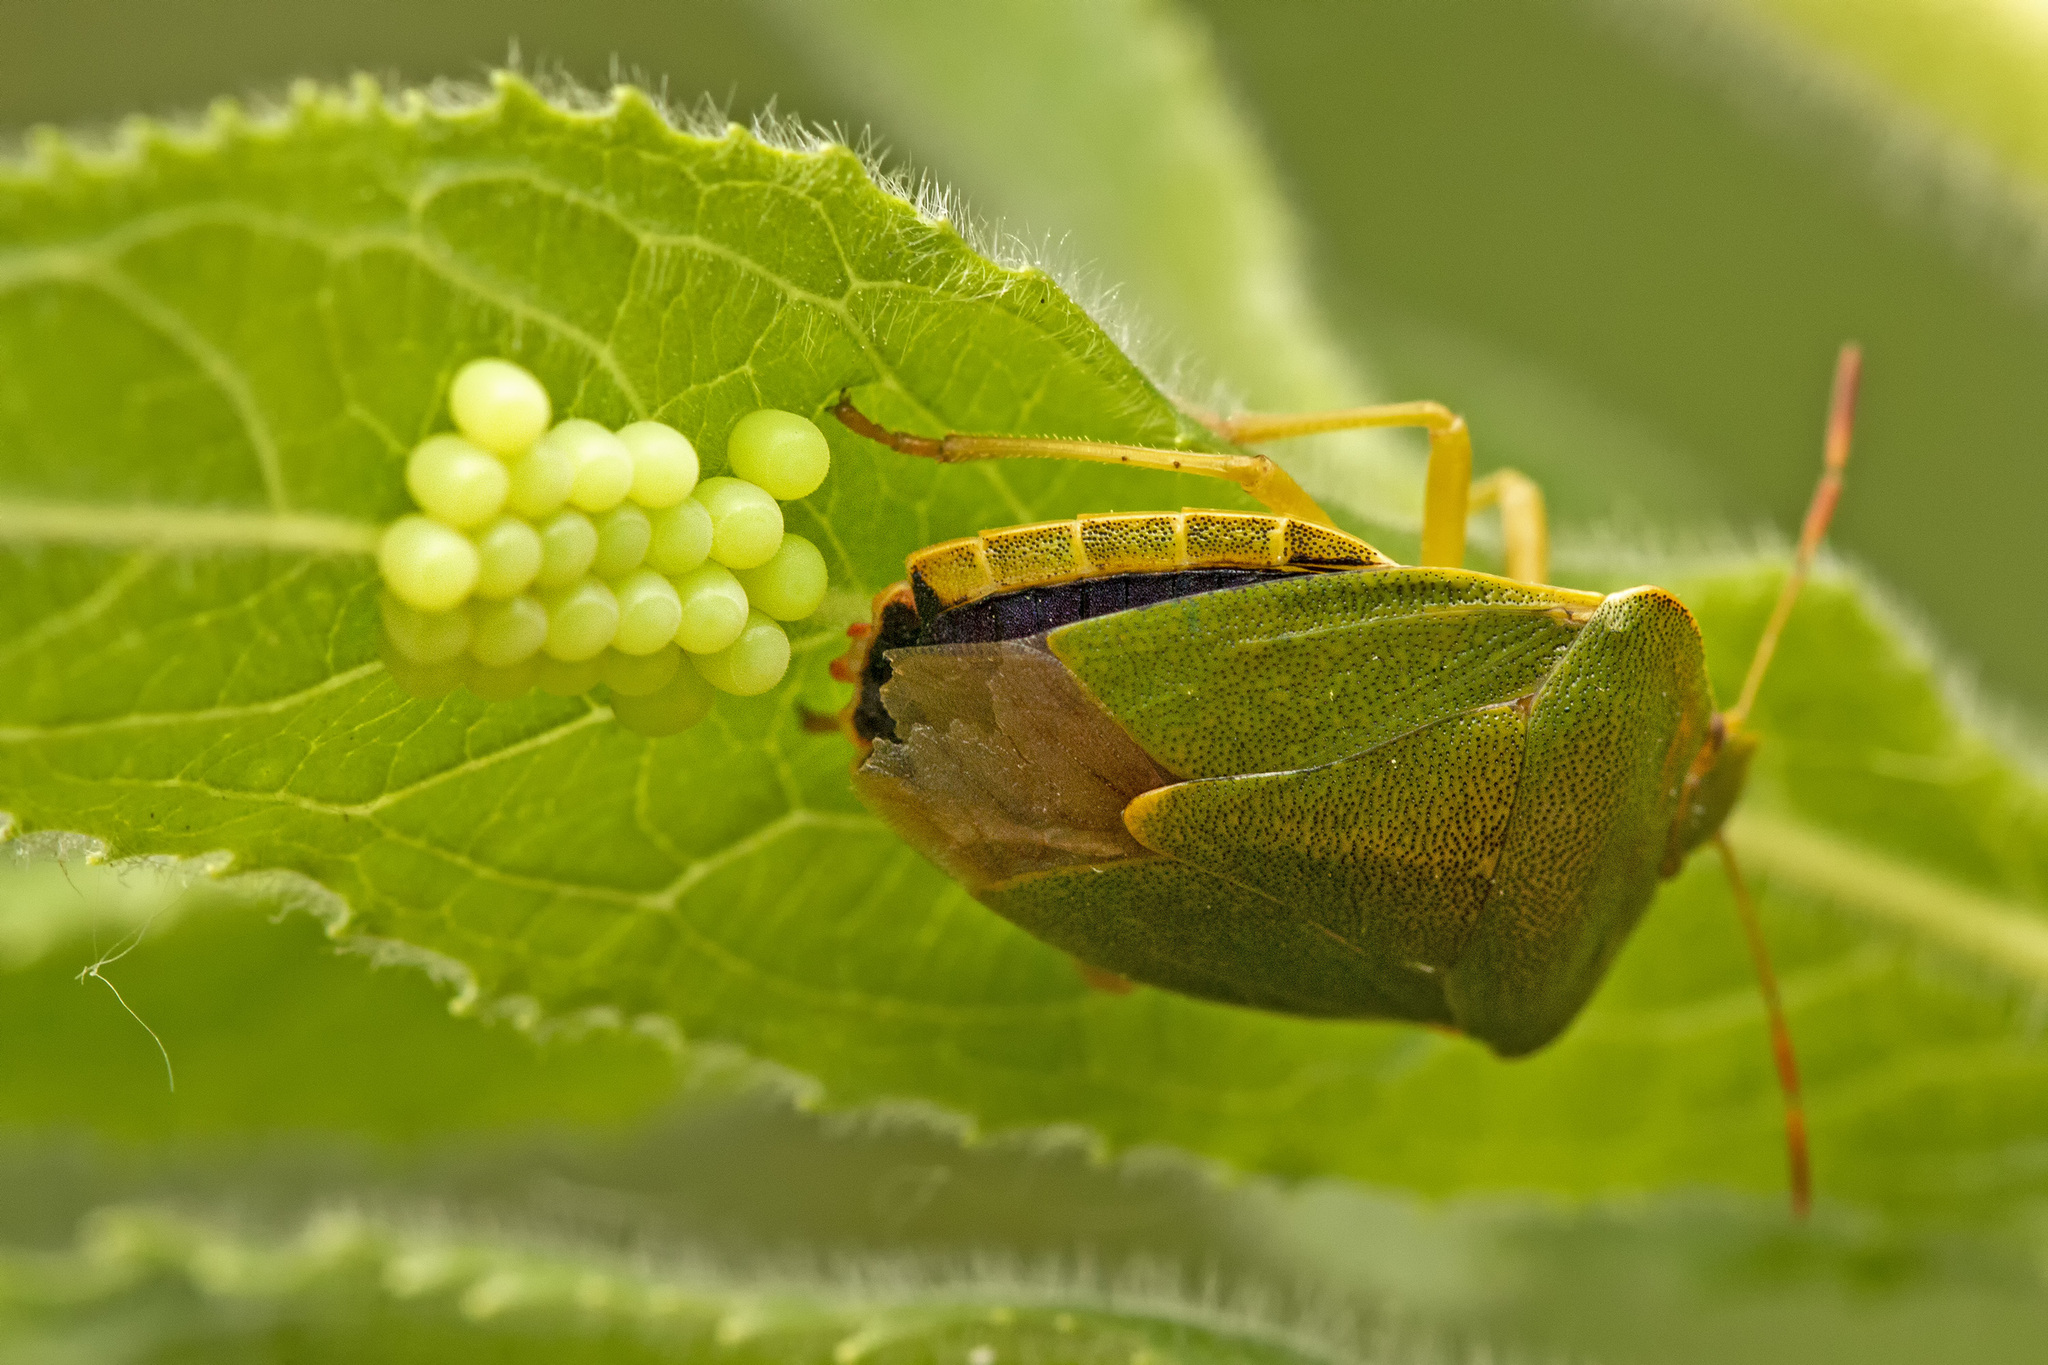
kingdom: Animalia
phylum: Arthropoda
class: Insecta
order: Hemiptera
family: Pentatomidae
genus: Palomena
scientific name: Palomena prasina
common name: Green shieldbug
